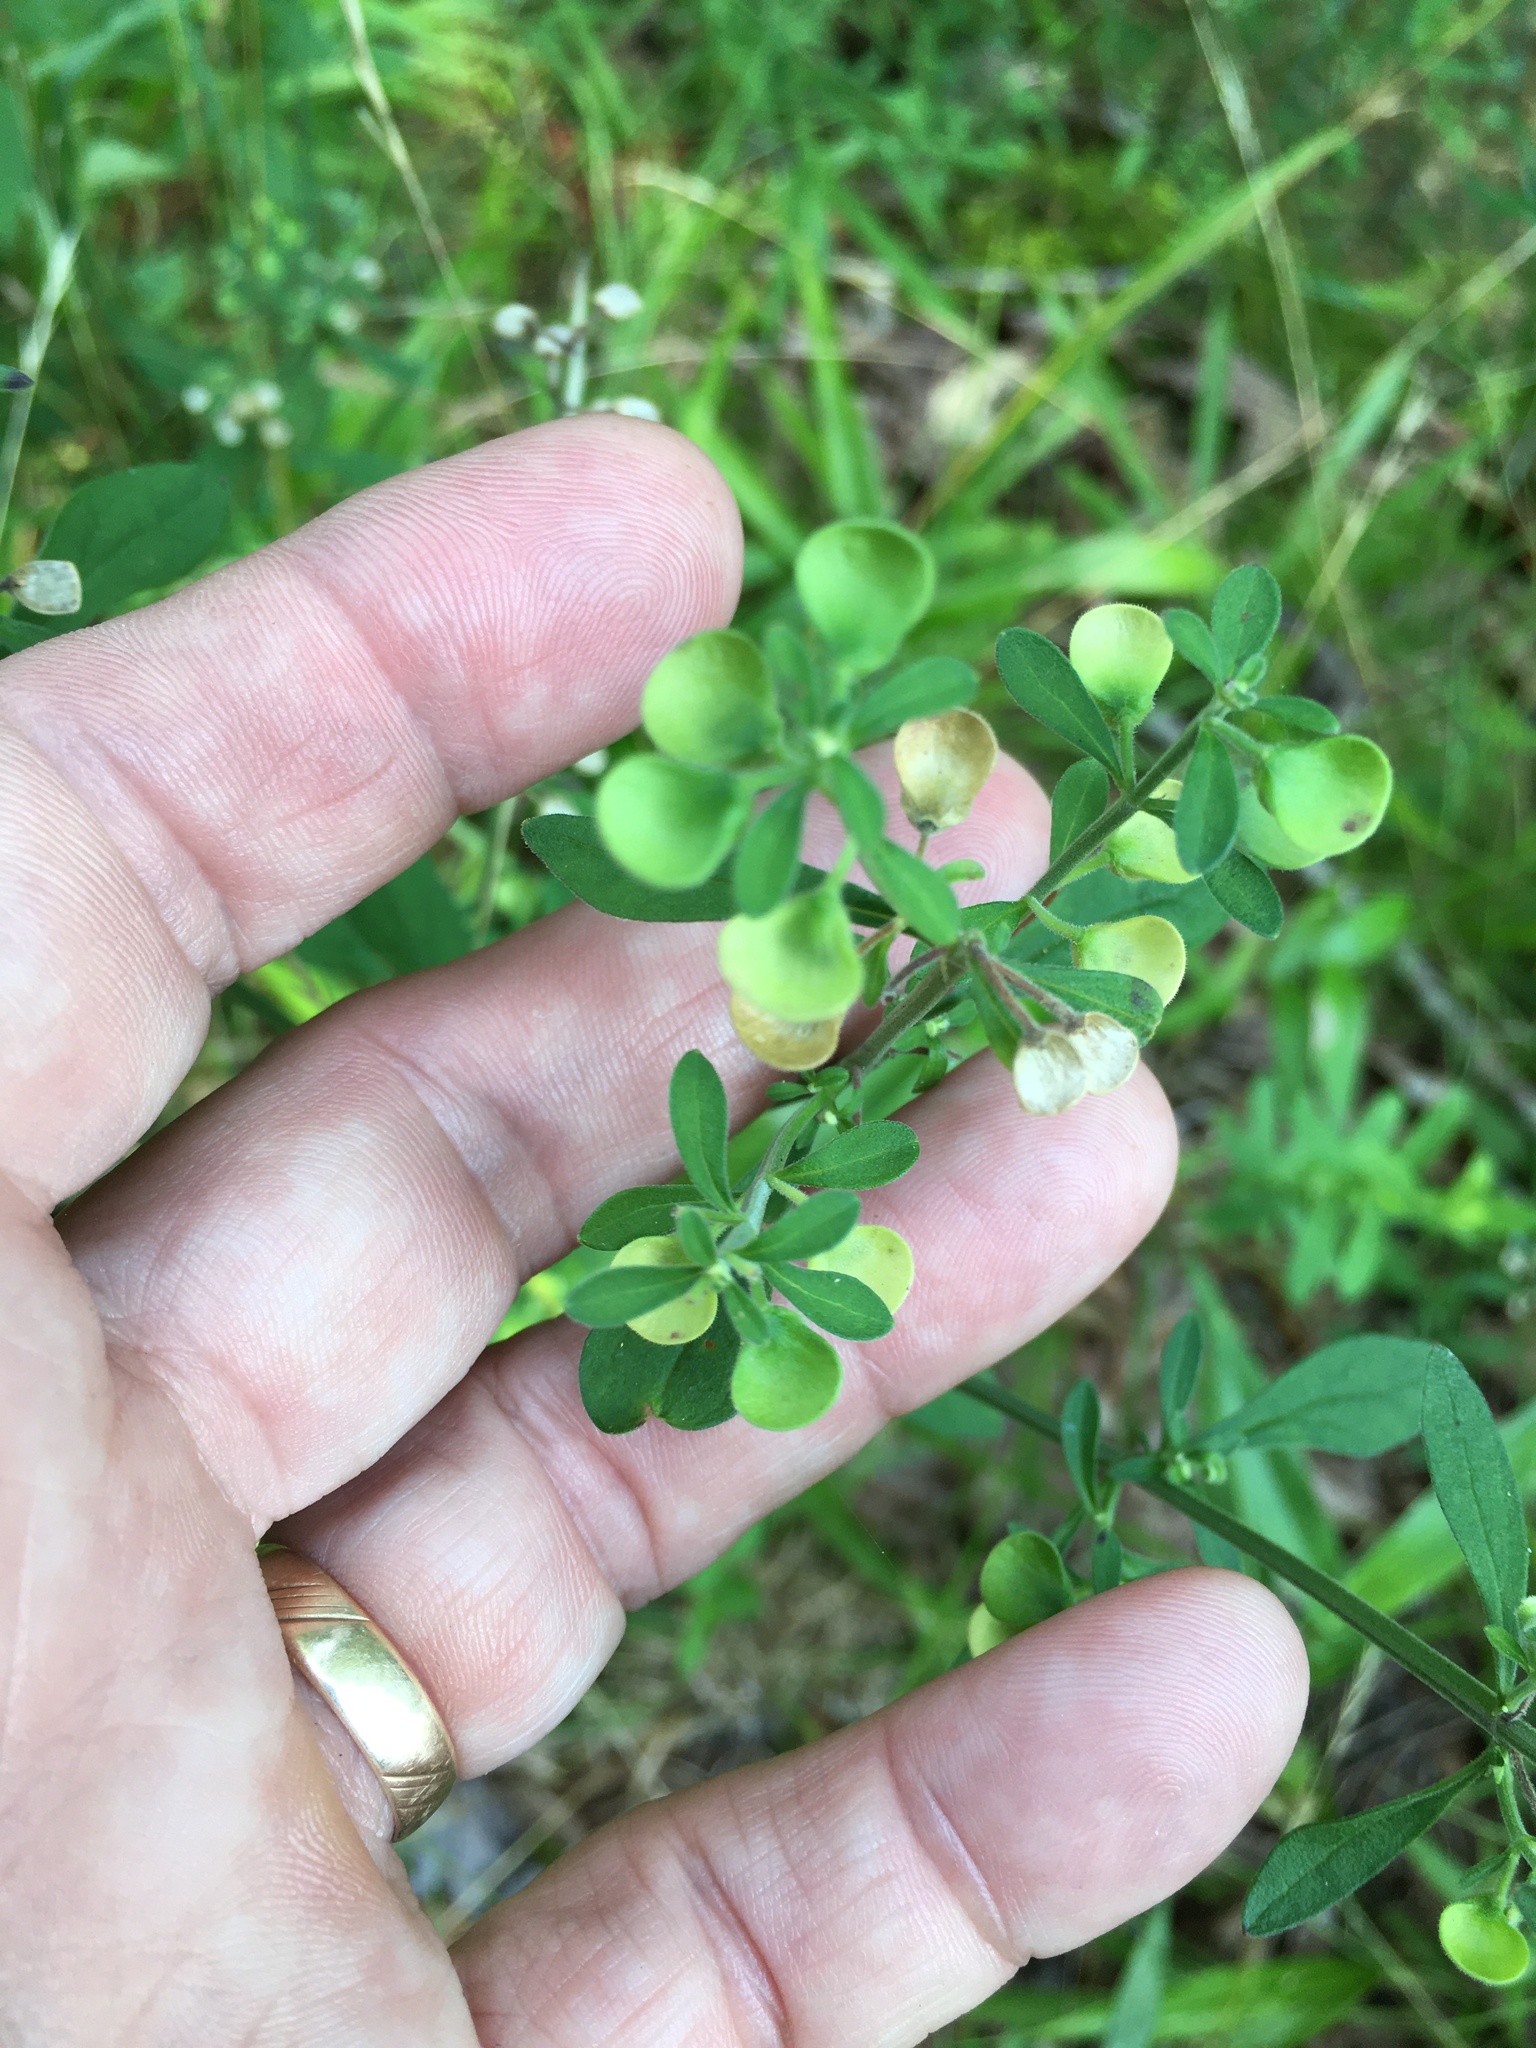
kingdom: Plantae
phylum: Tracheophyta
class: Magnoliopsida
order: Lamiales
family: Lamiaceae
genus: Scutellaria
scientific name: Scutellaria integrifolia
